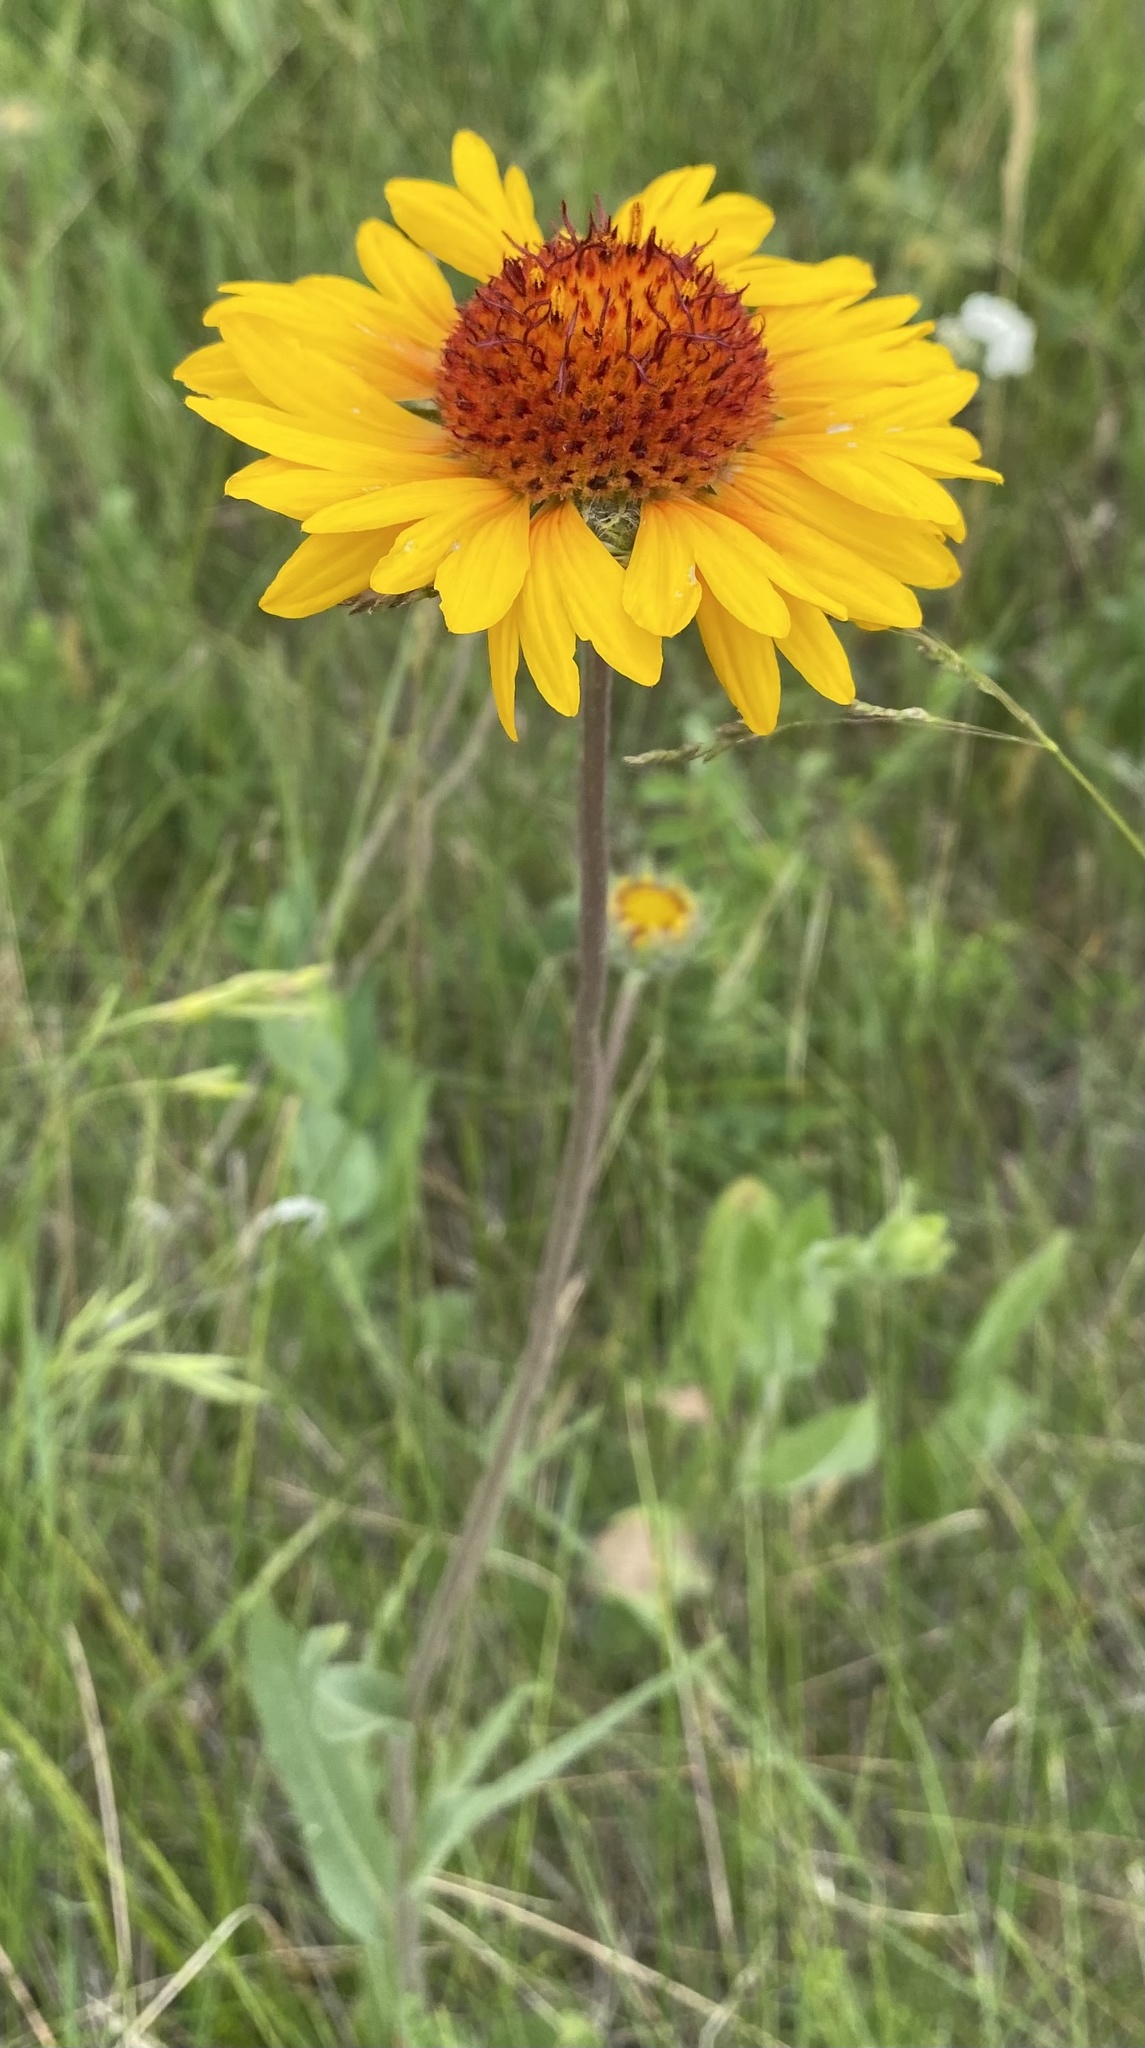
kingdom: Plantae
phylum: Tracheophyta
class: Magnoliopsida
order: Asterales
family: Asteraceae
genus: Gaillardia
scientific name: Gaillardia aristata
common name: Blanket-flower
